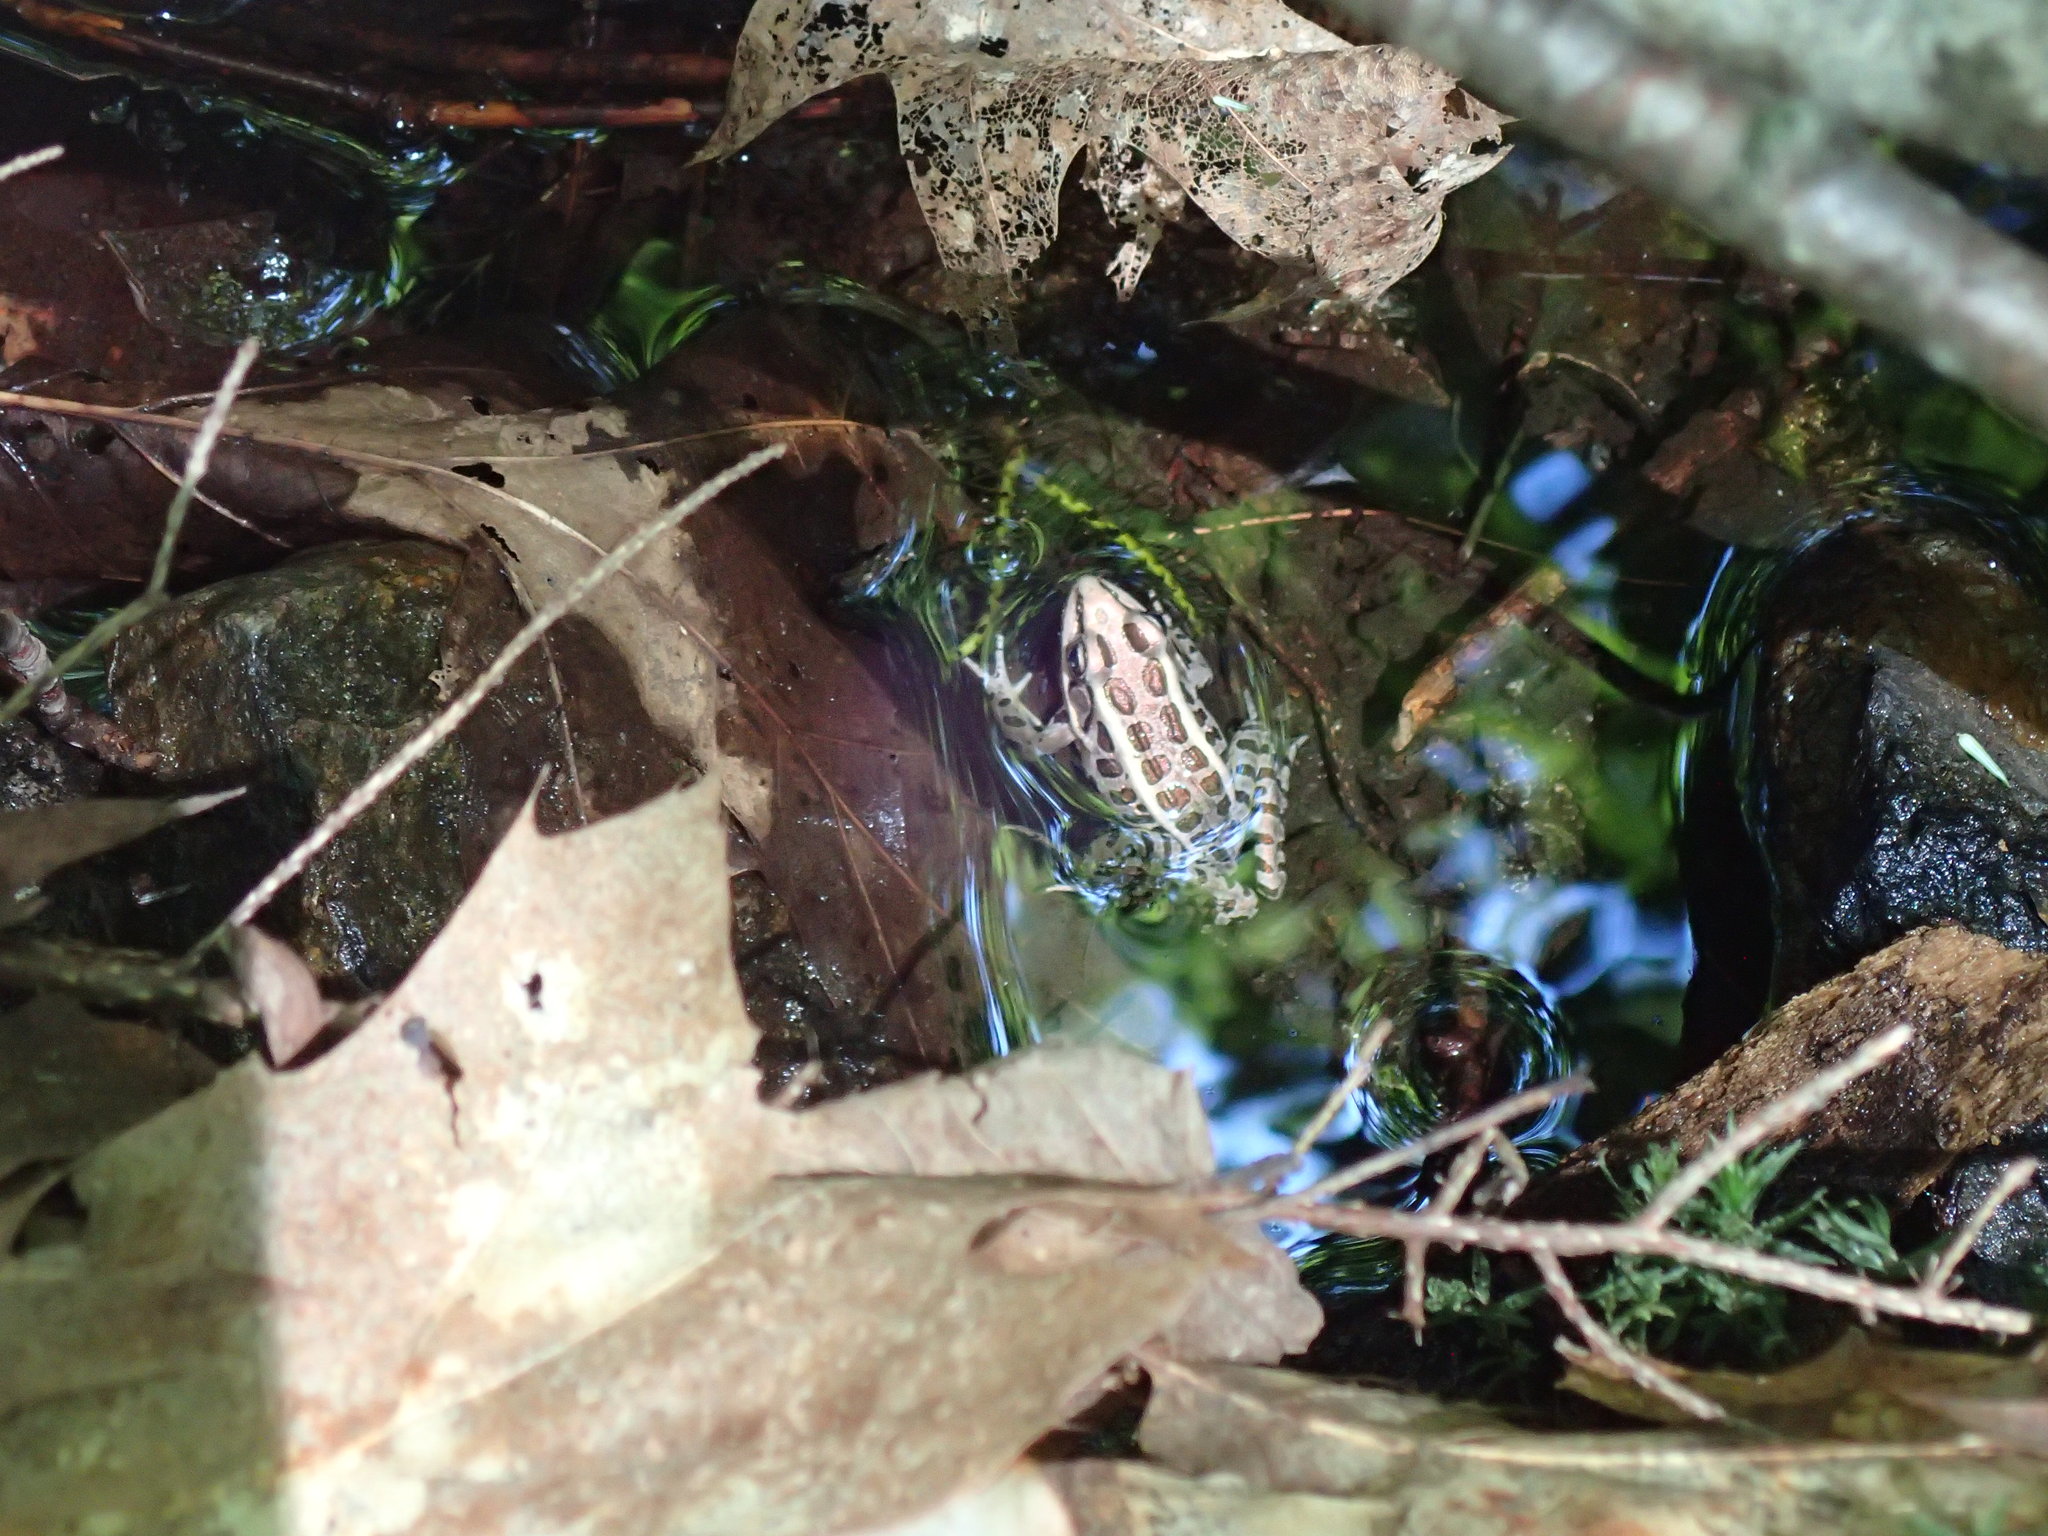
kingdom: Animalia
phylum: Chordata
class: Amphibia
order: Anura
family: Ranidae
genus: Lithobates
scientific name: Lithobates palustris
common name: Pickerel frog
